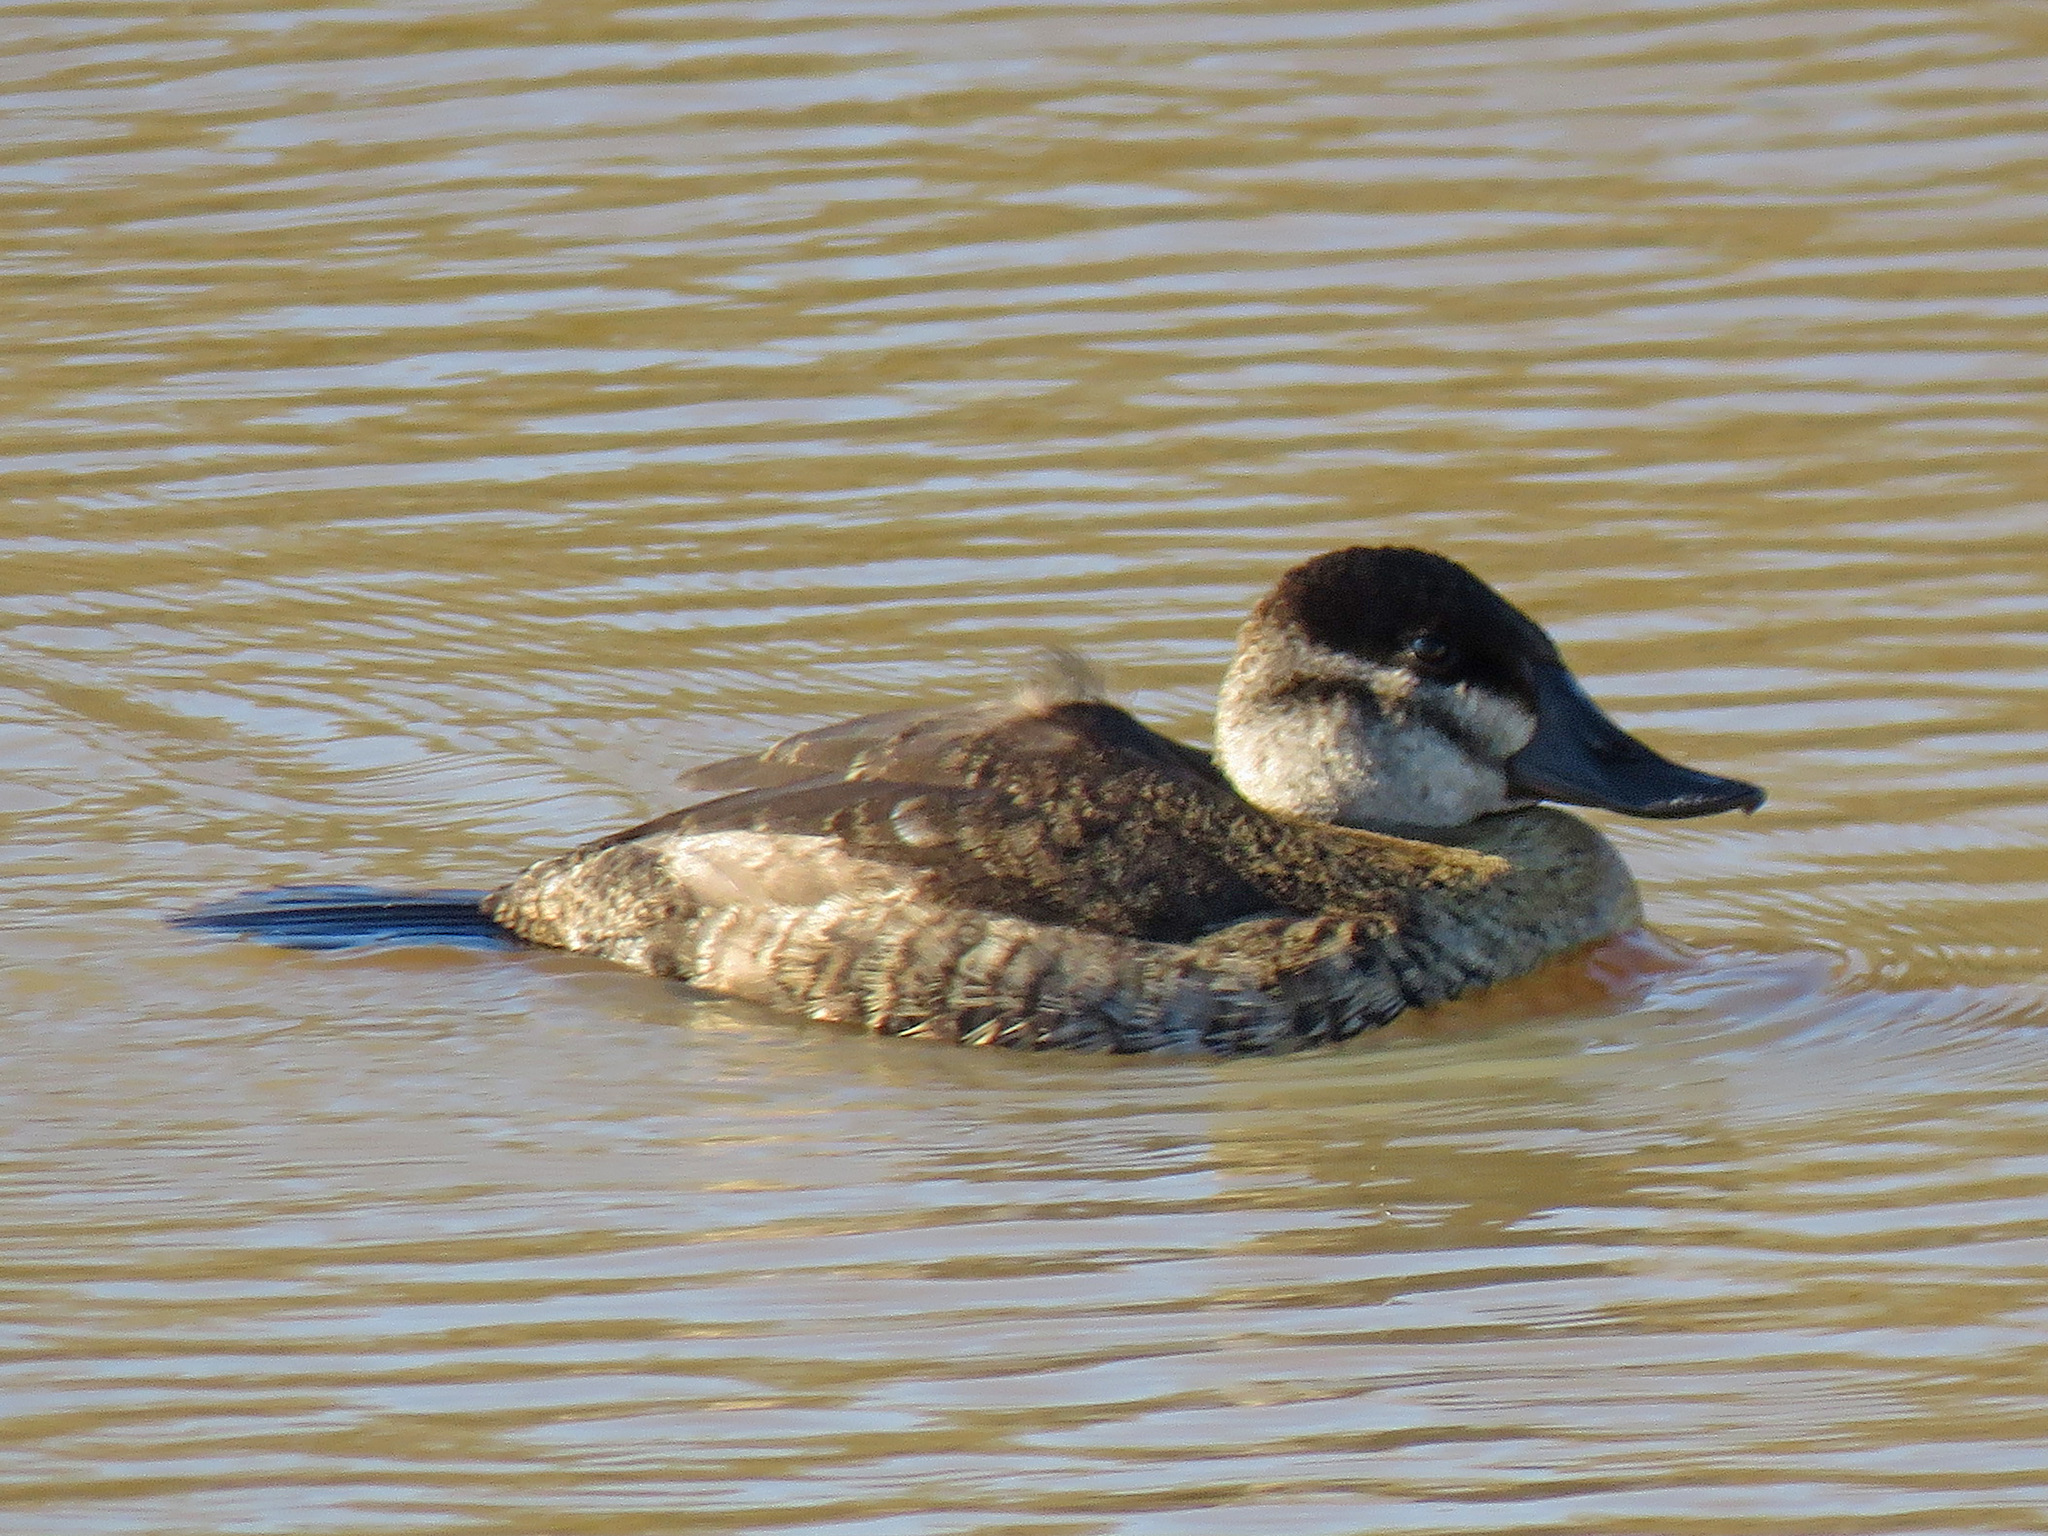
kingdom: Animalia
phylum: Chordata
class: Aves
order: Anseriformes
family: Anatidae
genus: Oxyura
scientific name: Oxyura jamaicensis
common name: Ruddy duck
